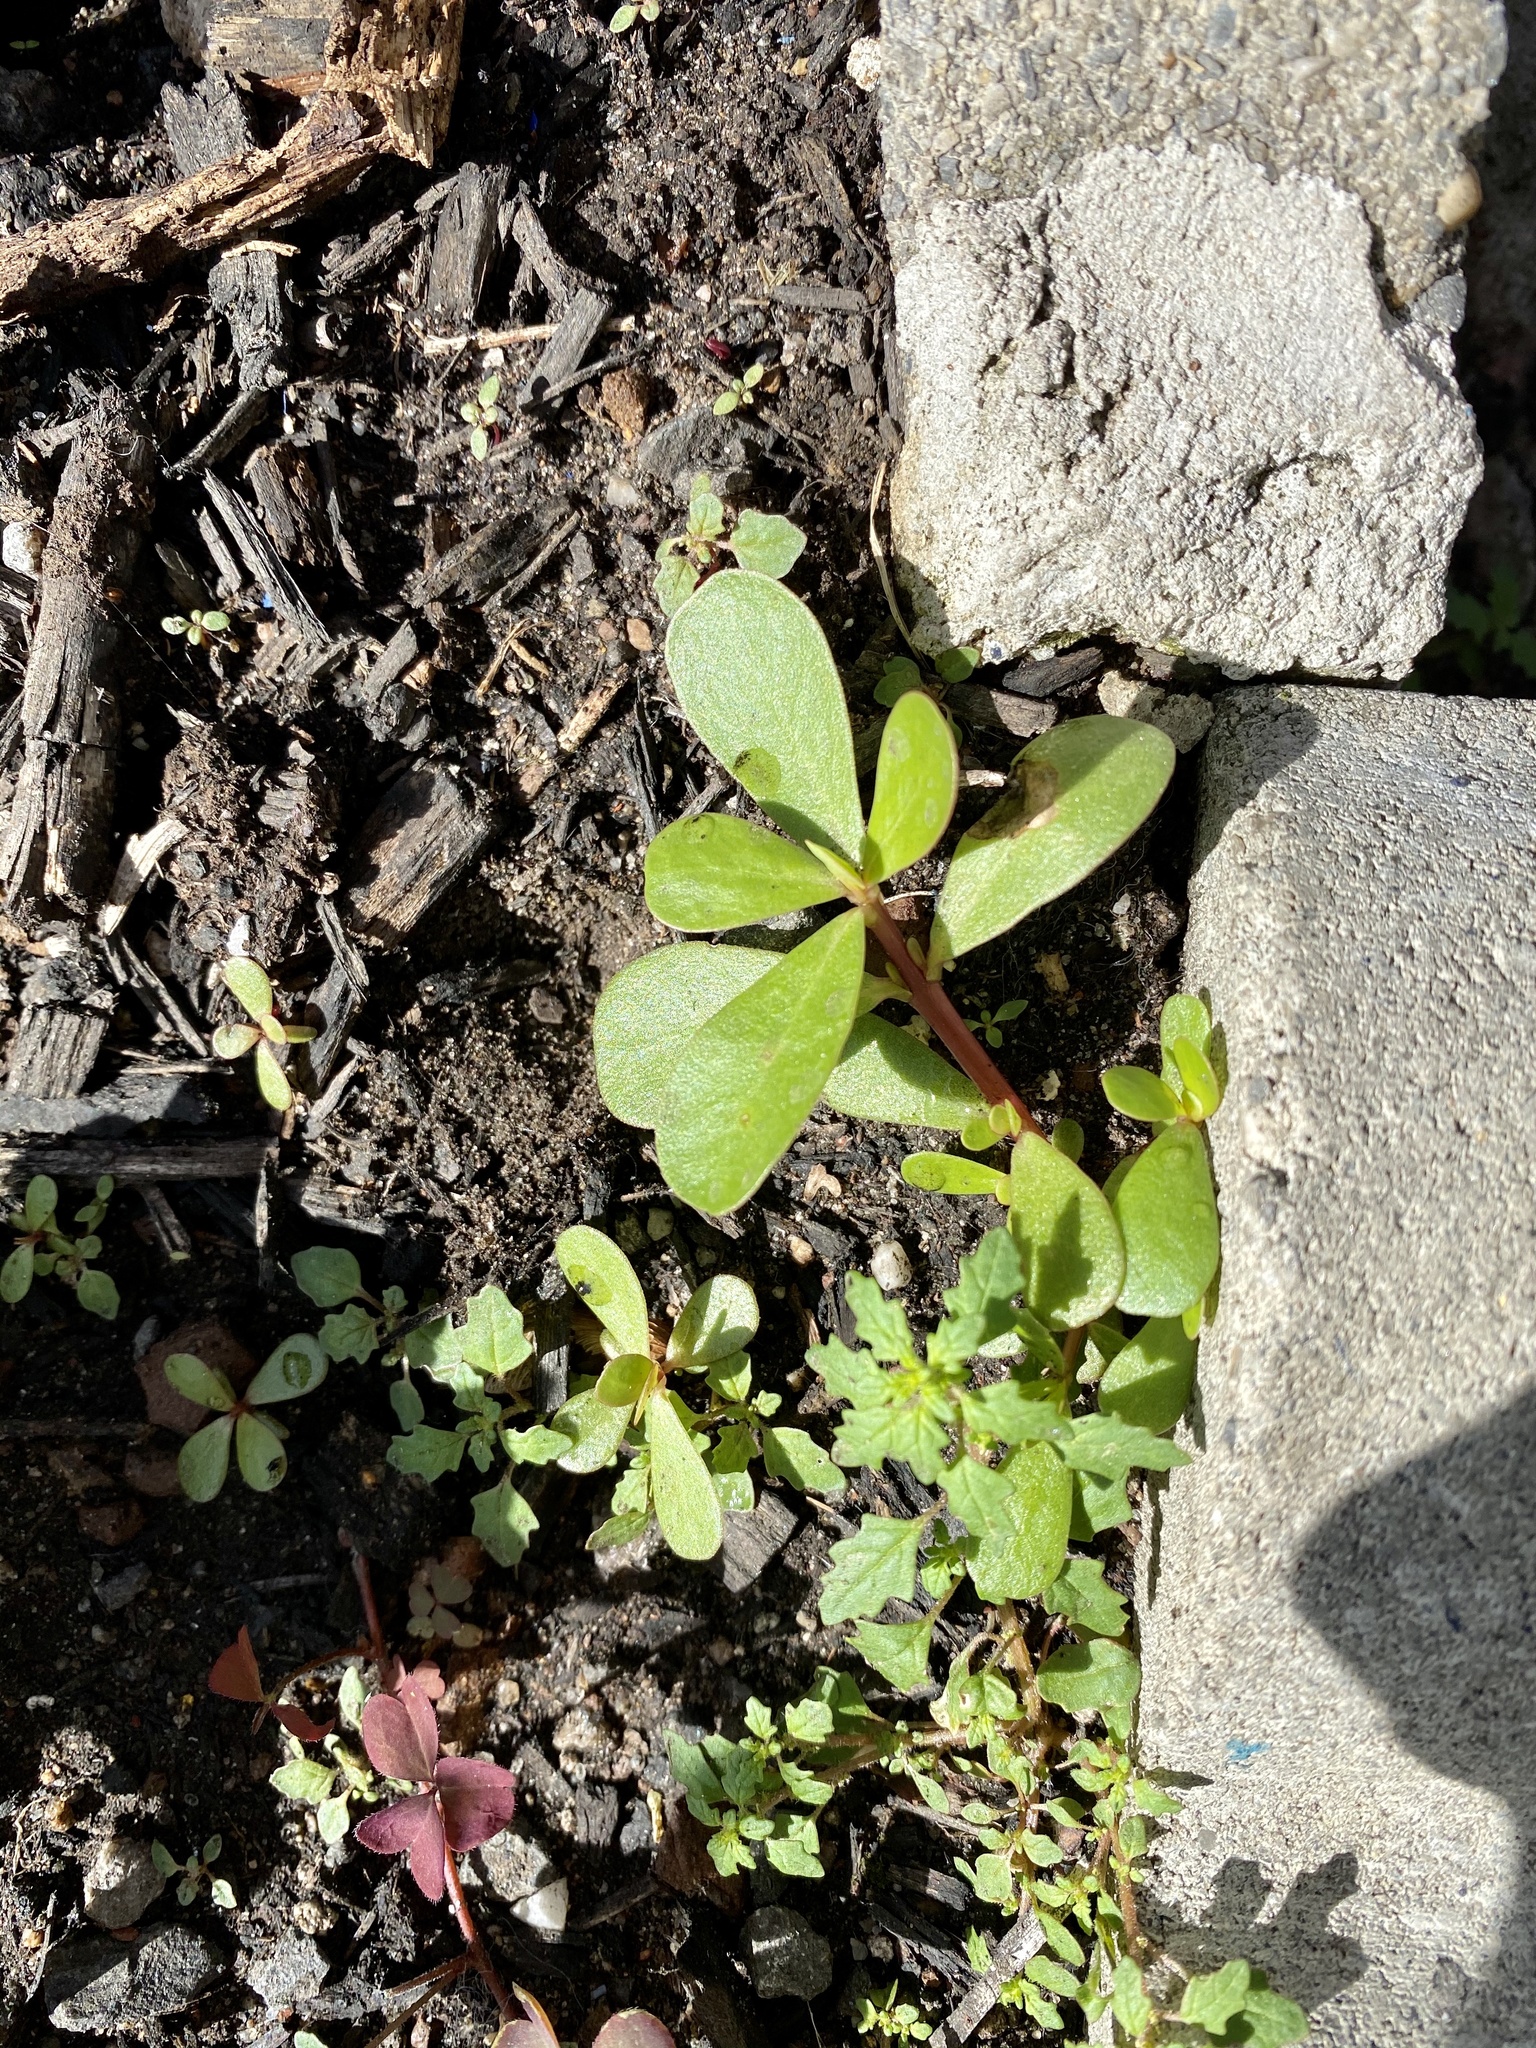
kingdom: Plantae
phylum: Tracheophyta
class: Magnoliopsida
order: Caryophyllales
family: Portulacaceae
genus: Portulaca
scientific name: Portulaca oleracea
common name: Common purslane
